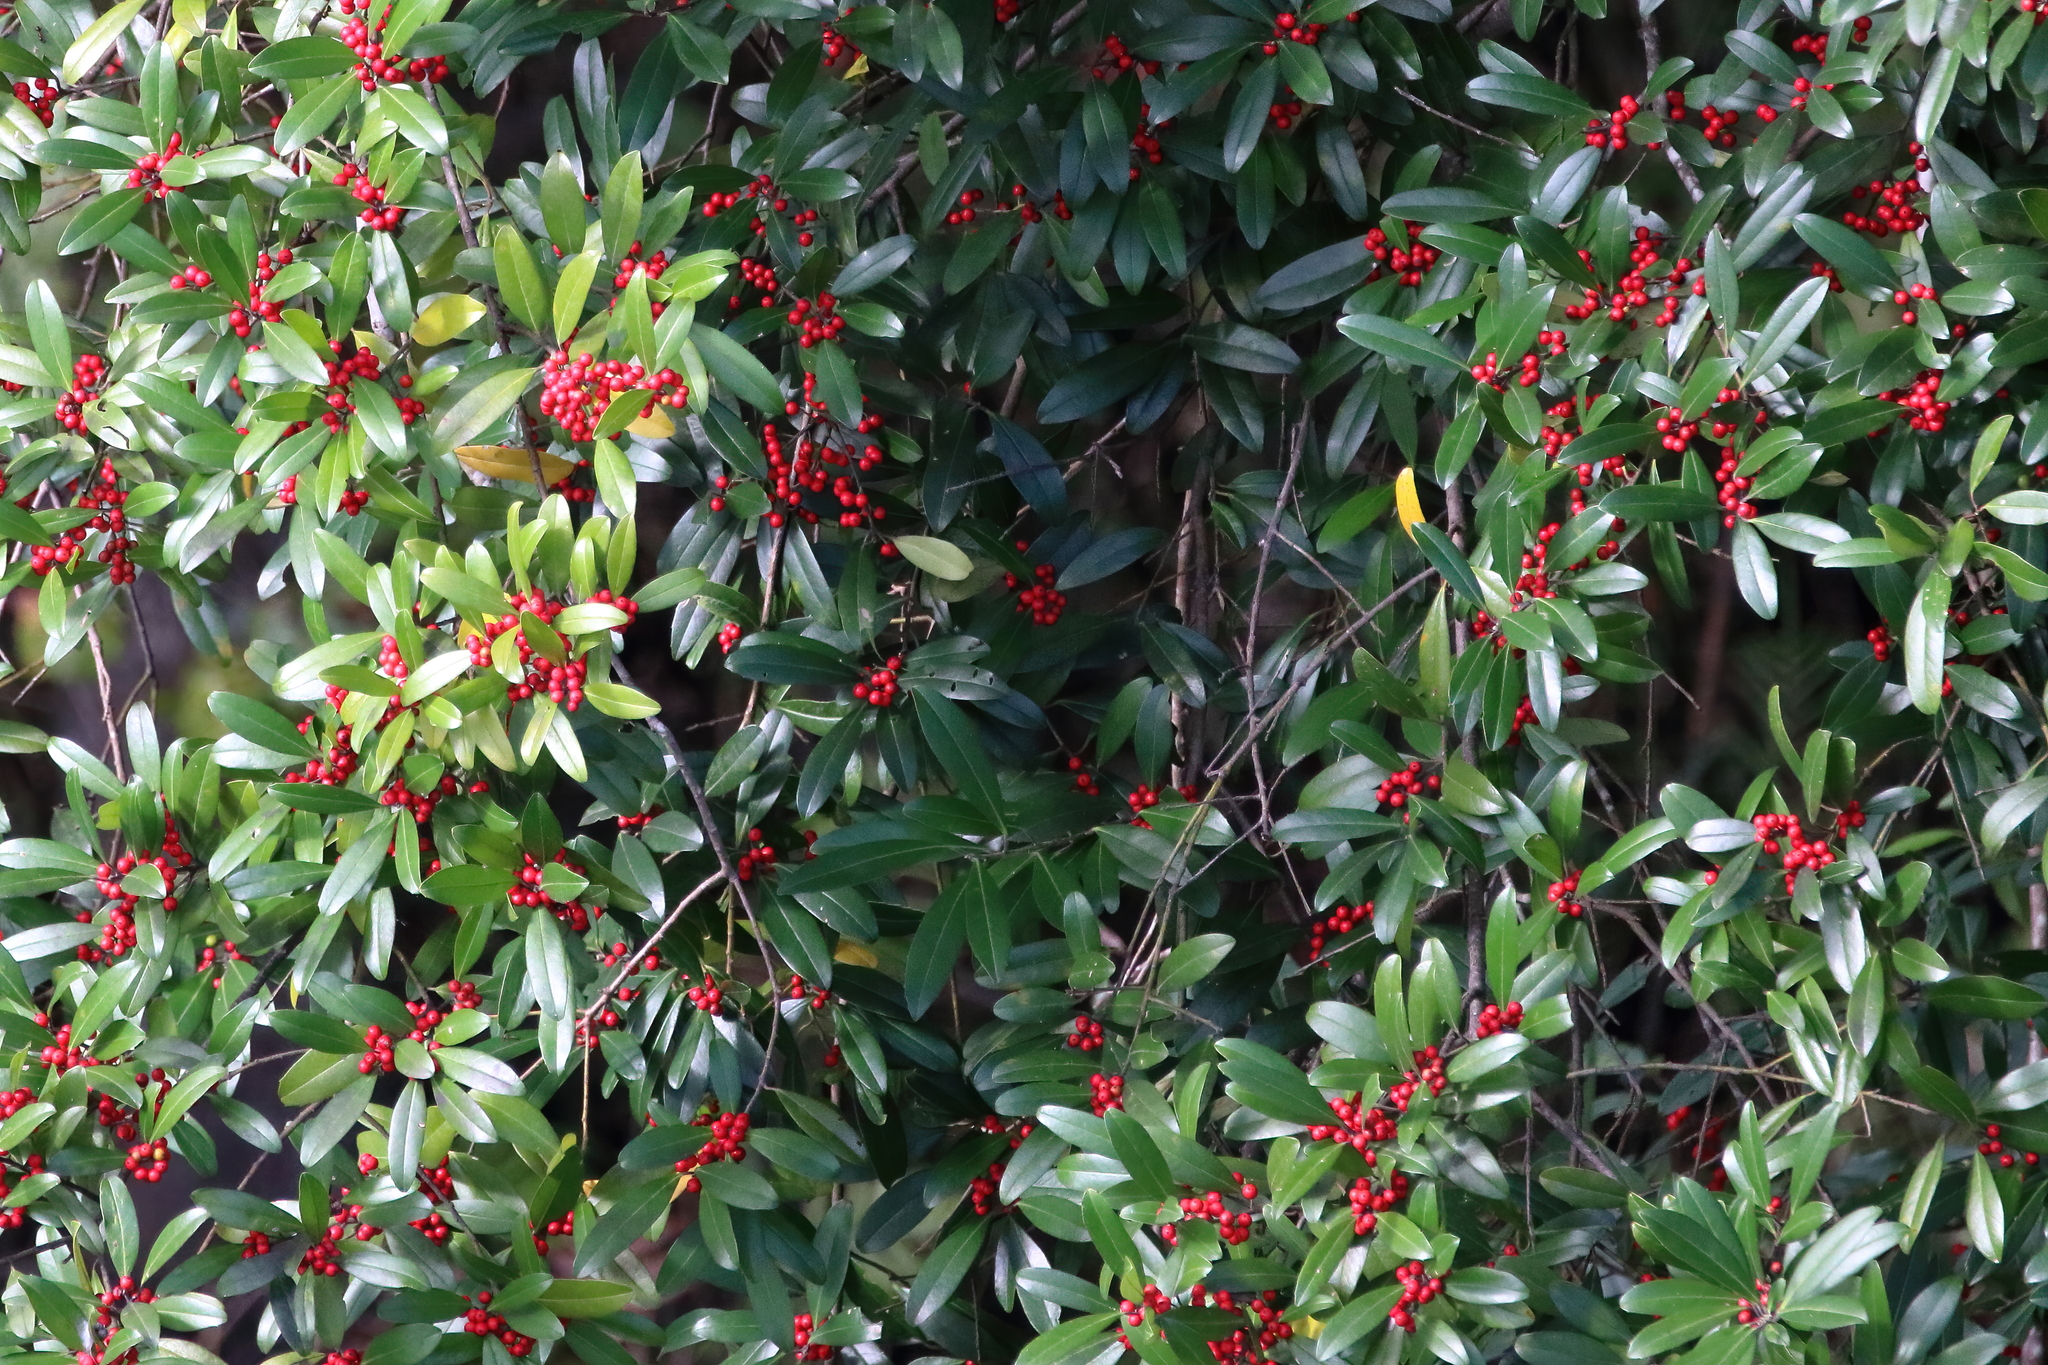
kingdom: Plantae
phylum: Tracheophyta
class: Magnoliopsida
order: Aquifoliales
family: Aquifoliaceae
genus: Ilex
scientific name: Ilex cassine
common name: Dahoon
